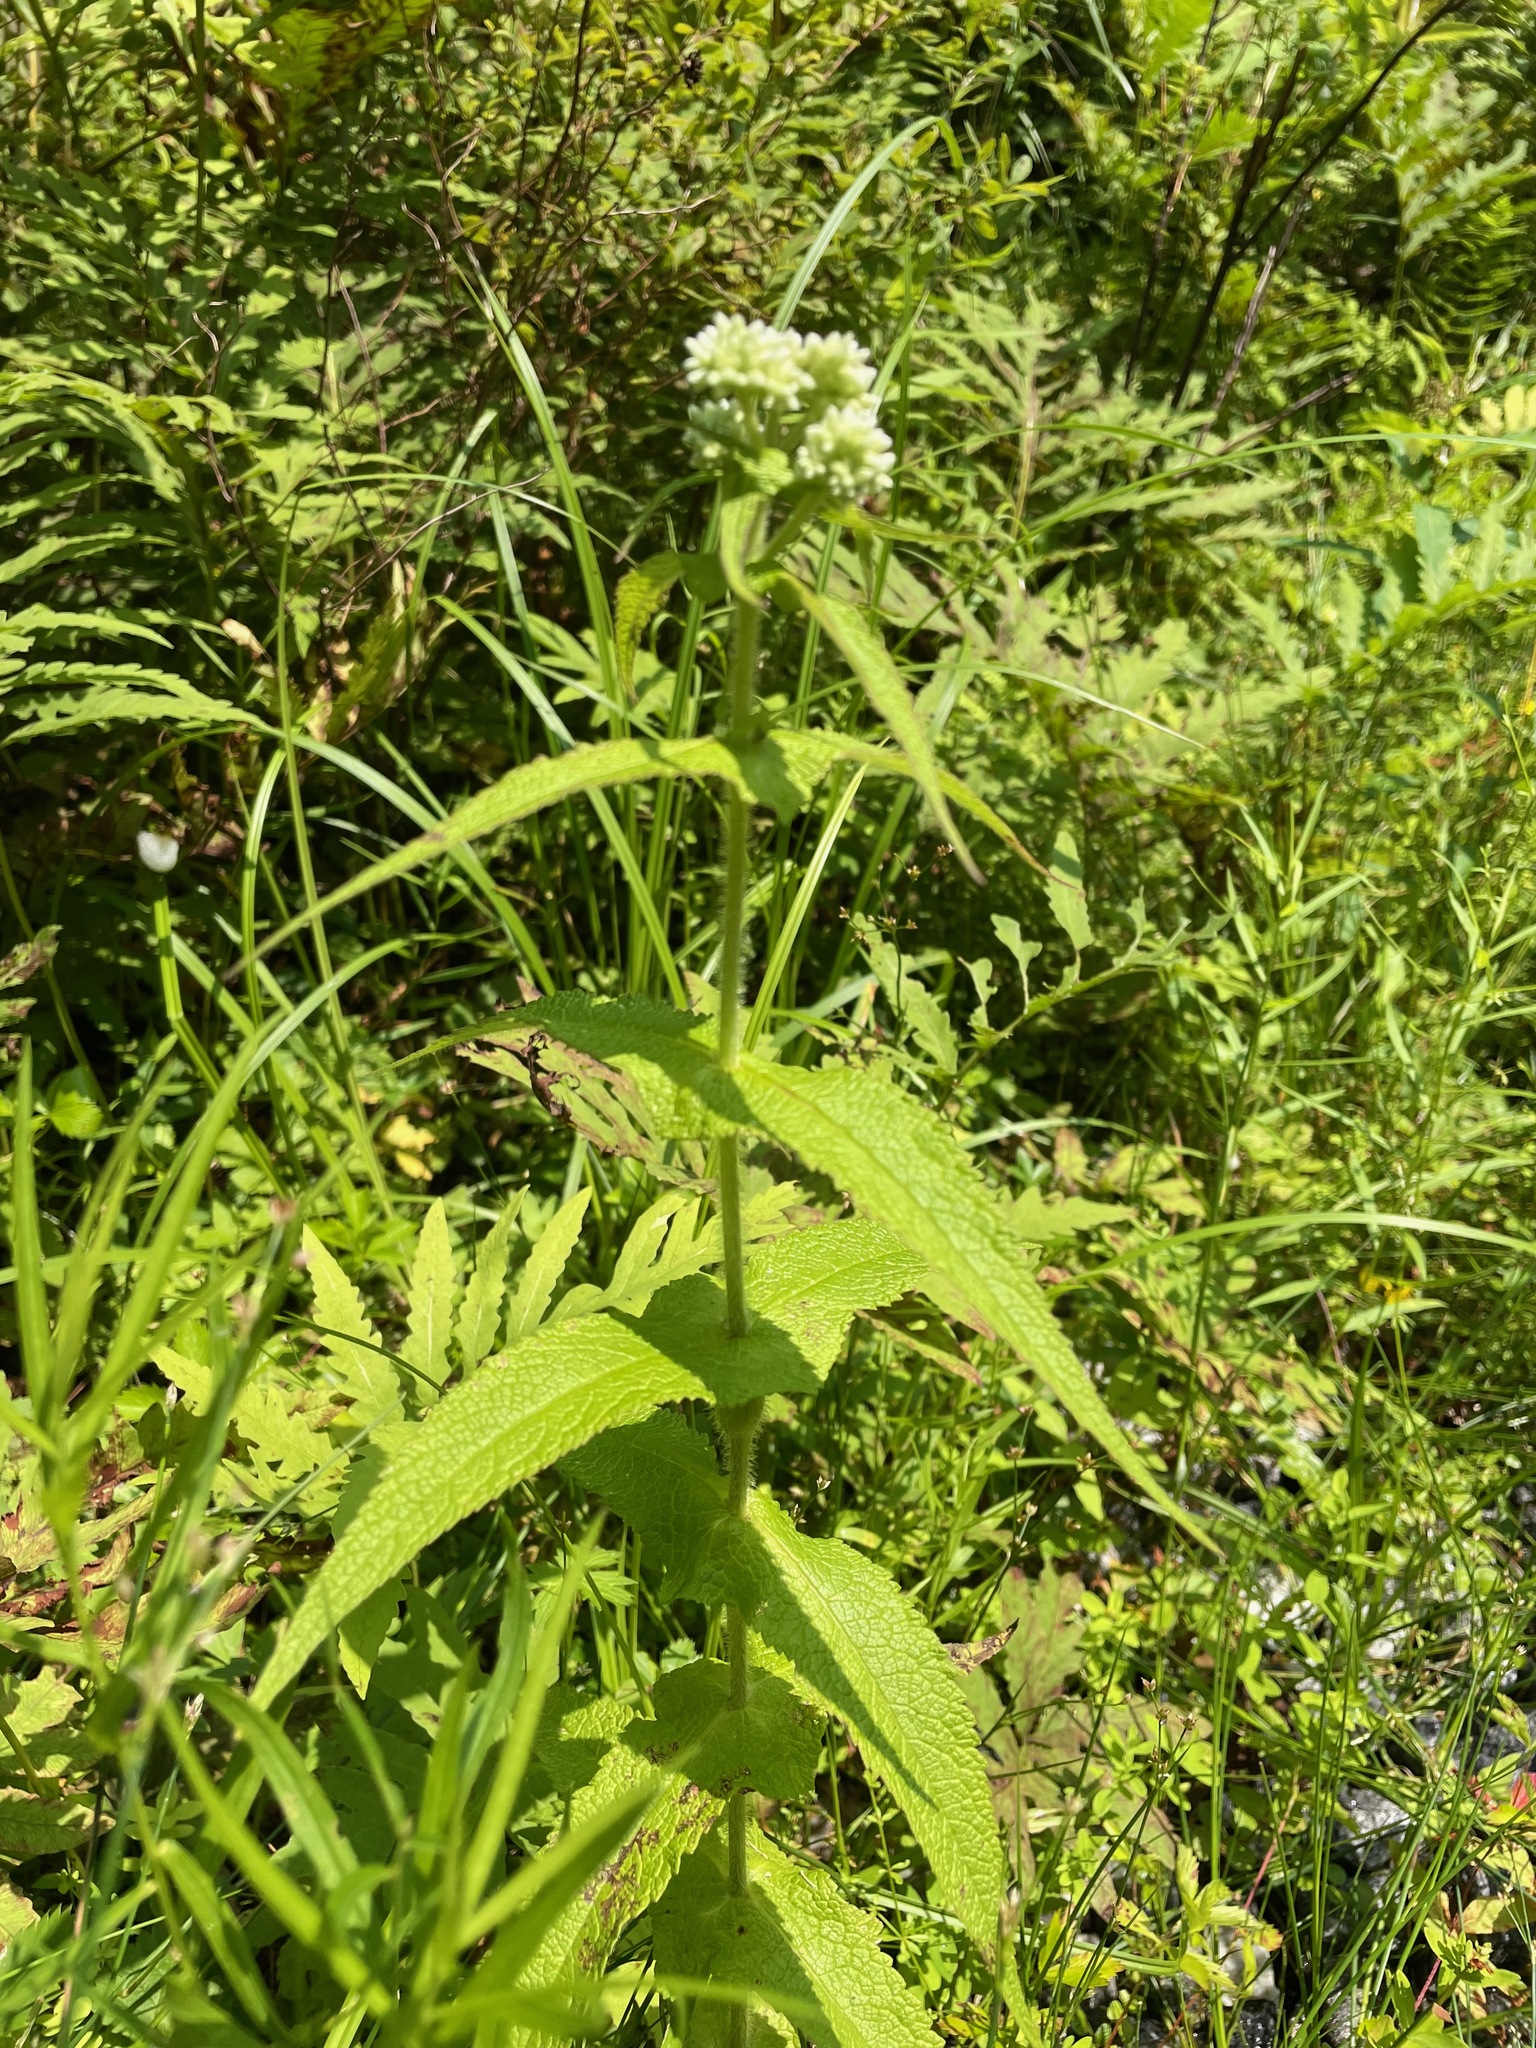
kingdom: Plantae
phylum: Tracheophyta
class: Magnoliopsida
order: Asterales
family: Asteraceae
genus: Eupatorium
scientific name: Eupatorium perfoliatum
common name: Boneset
